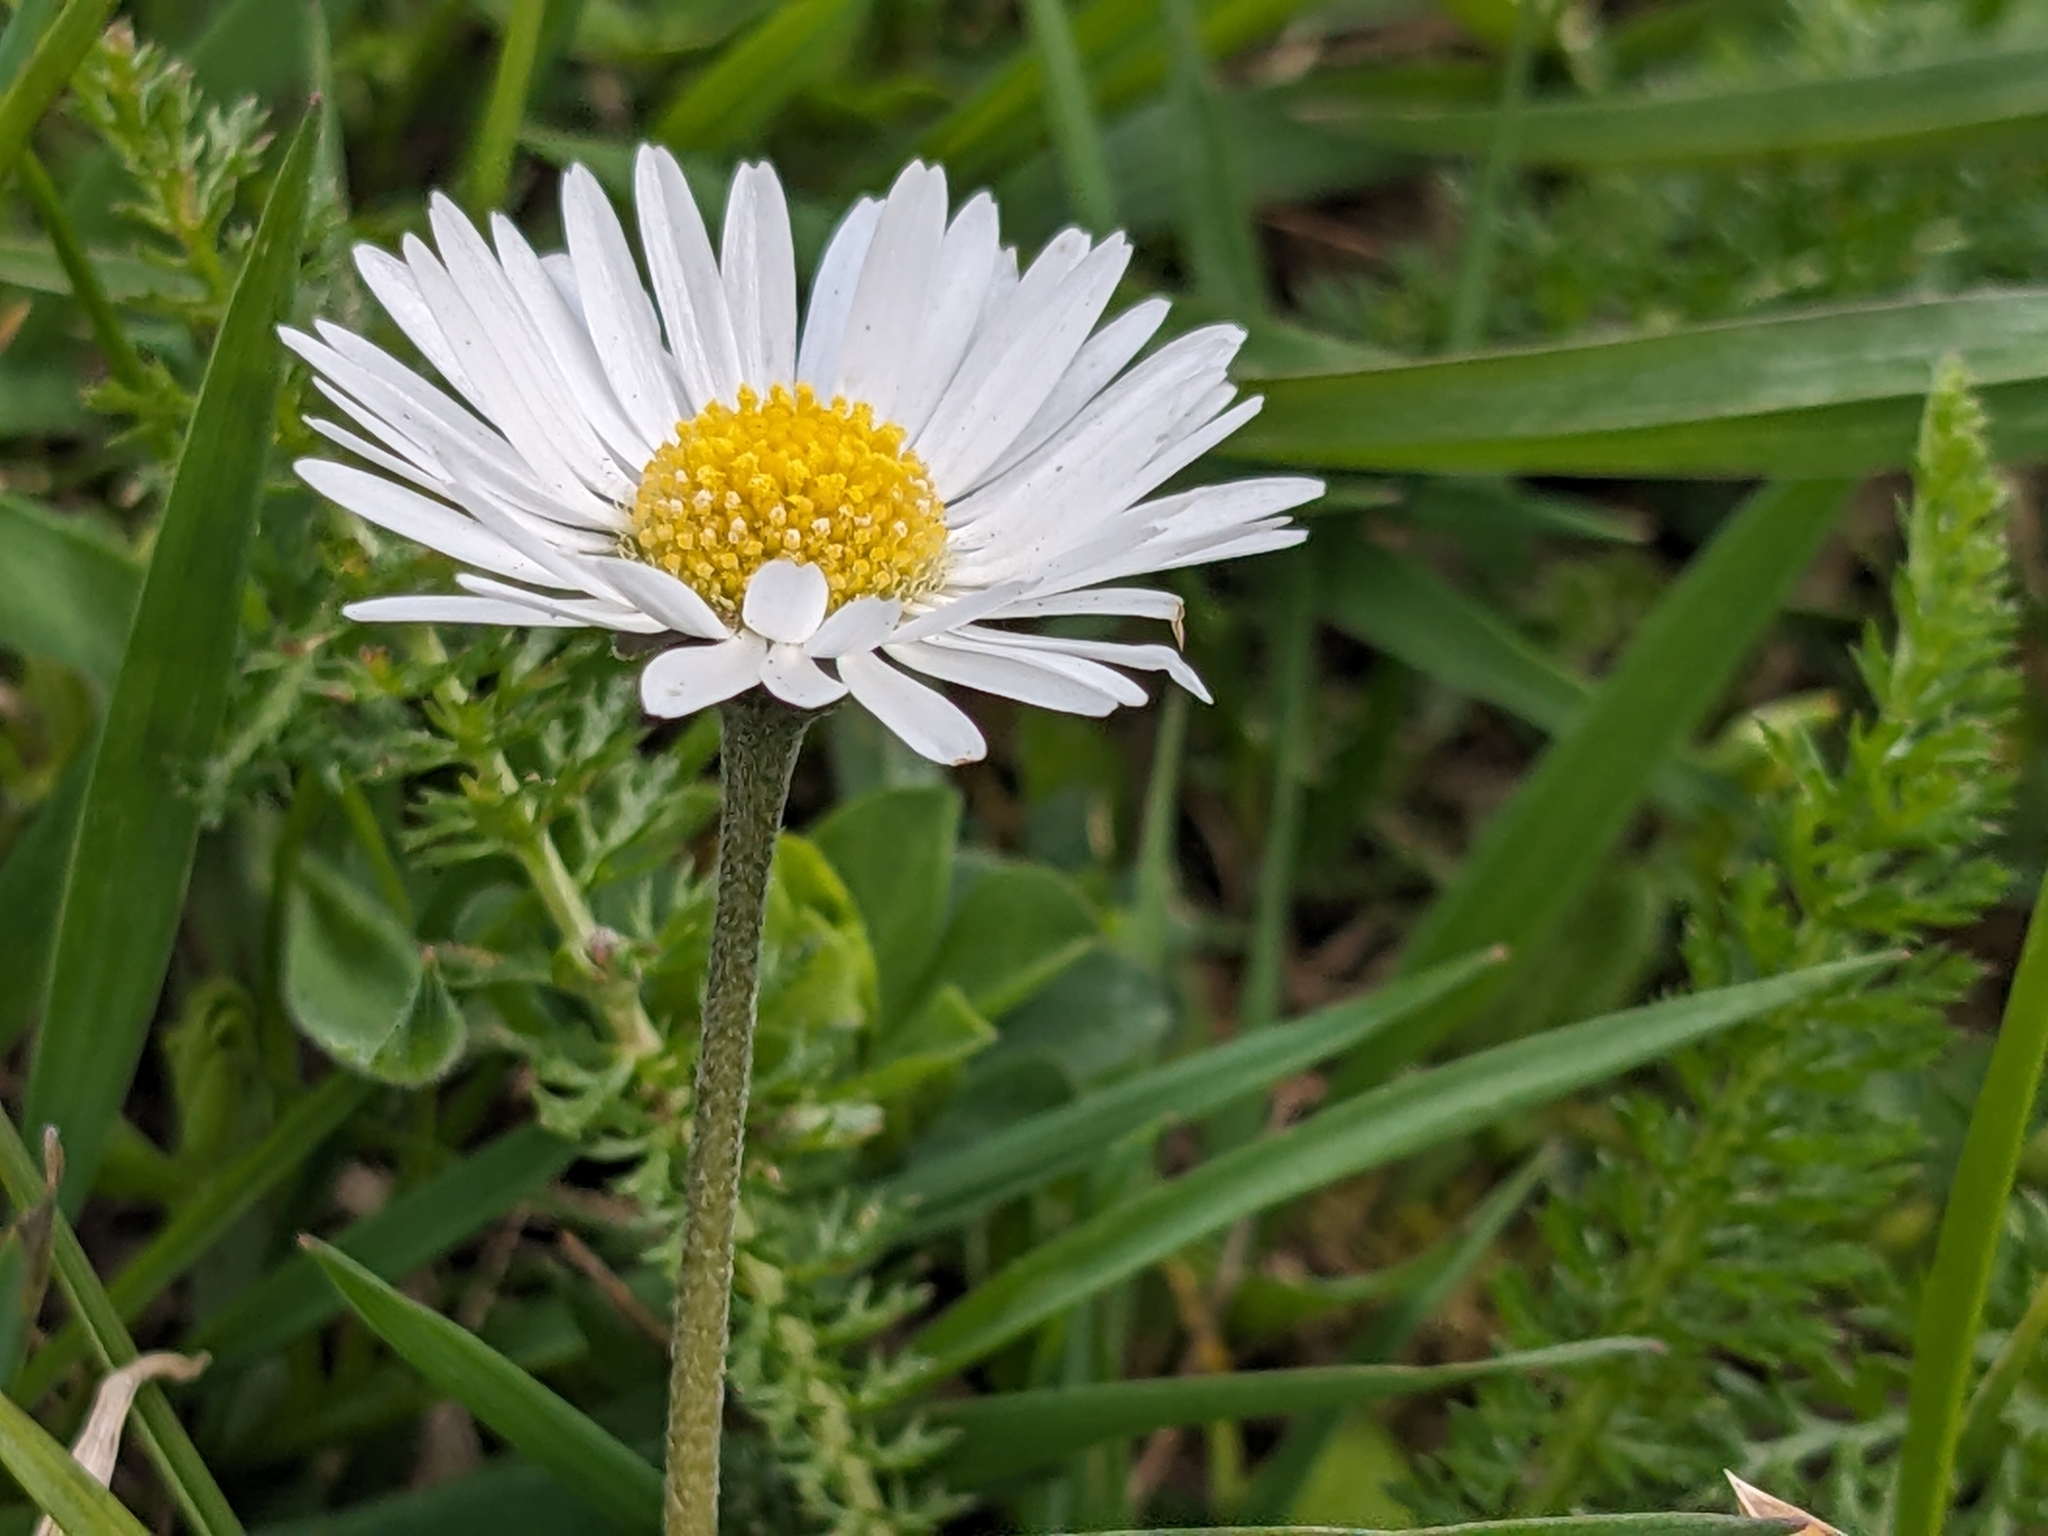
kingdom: Plantae
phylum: Tracheophyta
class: Magnoliopsida
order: Asterales
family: Asteraceae
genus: Bellis
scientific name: Bellis perennis
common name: Lawndaisy
